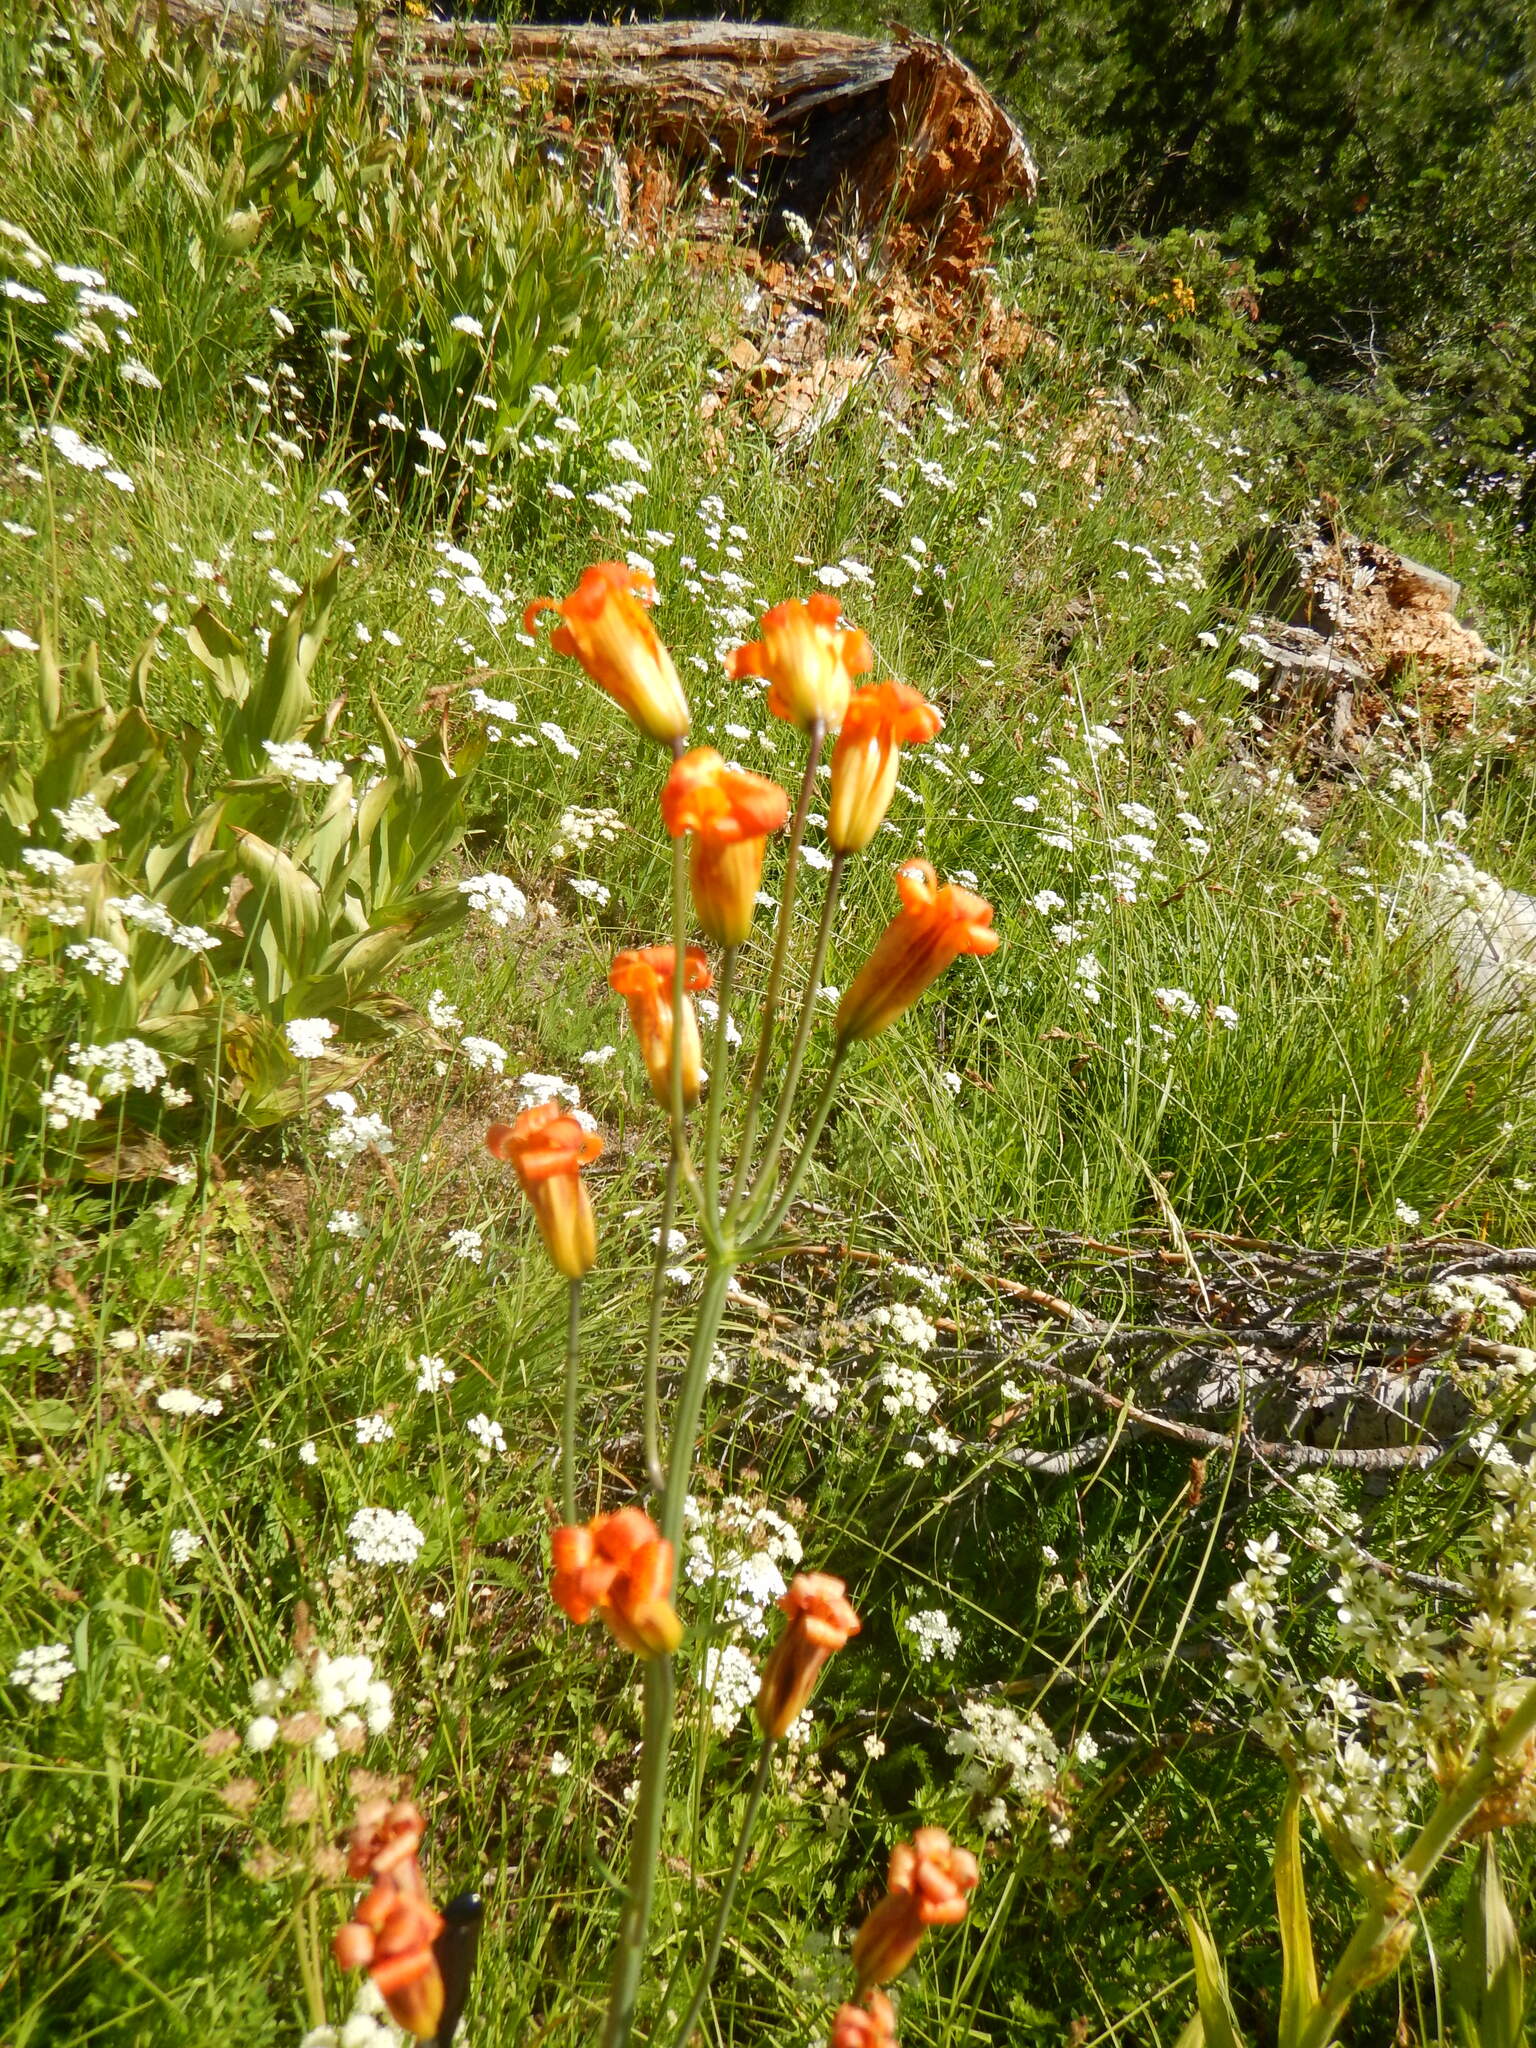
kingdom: Plantae
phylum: Tracheophyta
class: Liliopsida
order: Liliales
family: Liliaceae
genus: Lilium
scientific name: Lilium parvum
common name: Alpine lily
